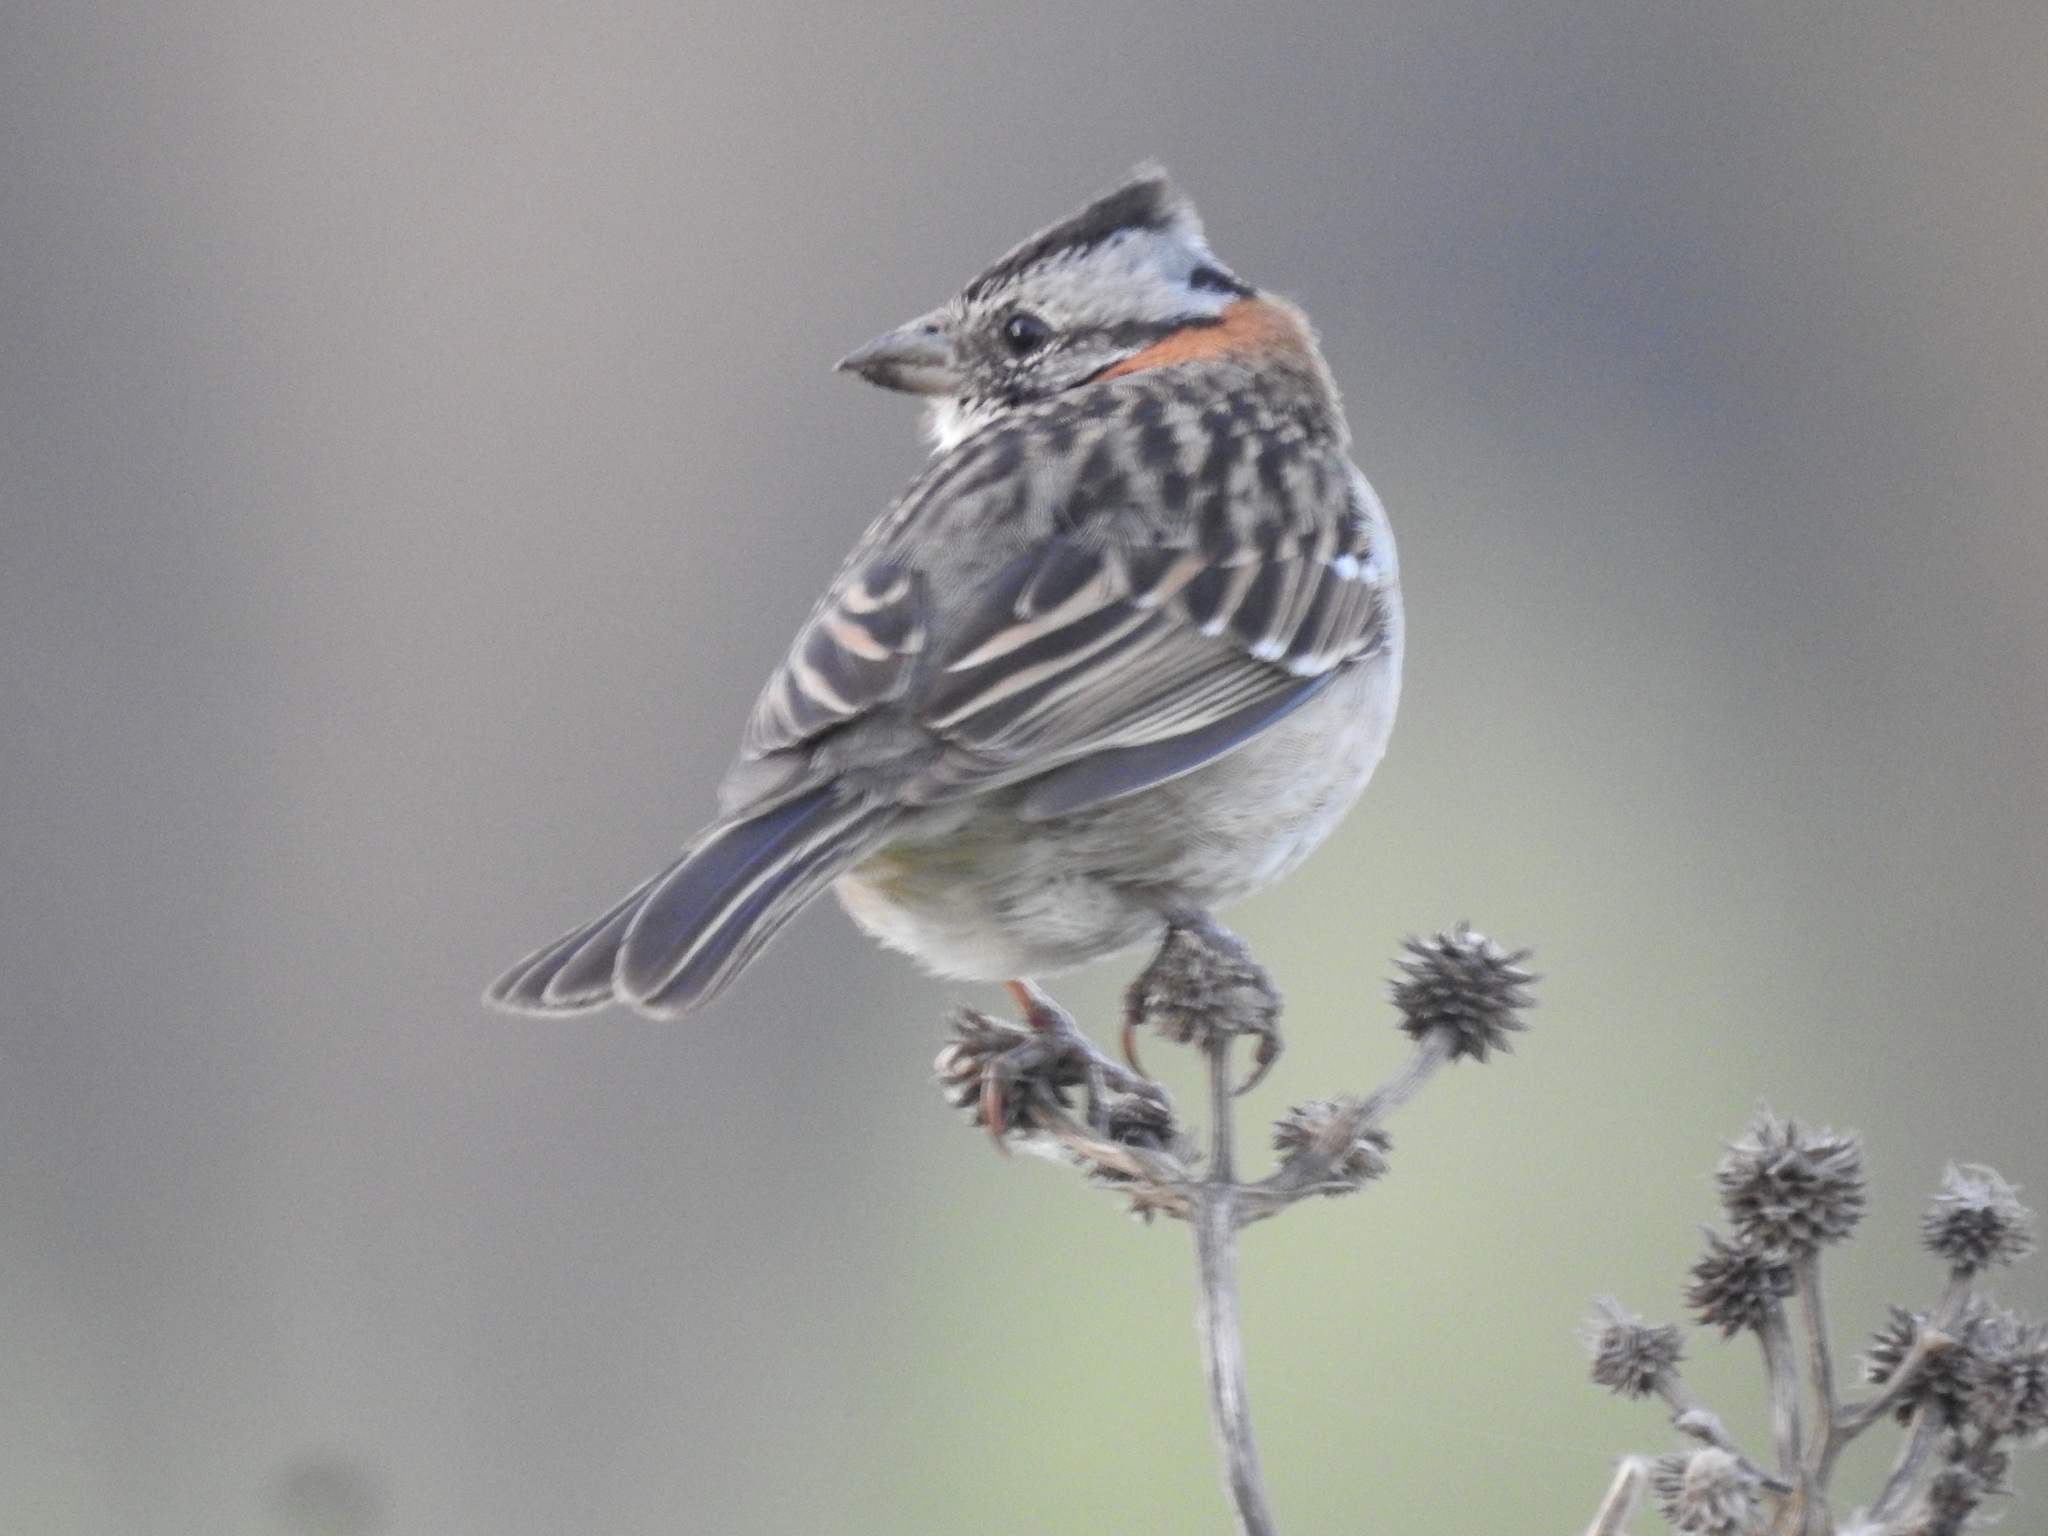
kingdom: Animalia
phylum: Chordata
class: Aves
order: Passeriformes
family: Passerellidae
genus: Zonotrichia
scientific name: Zonotrichia capensis
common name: Rufous-collared sparrow
